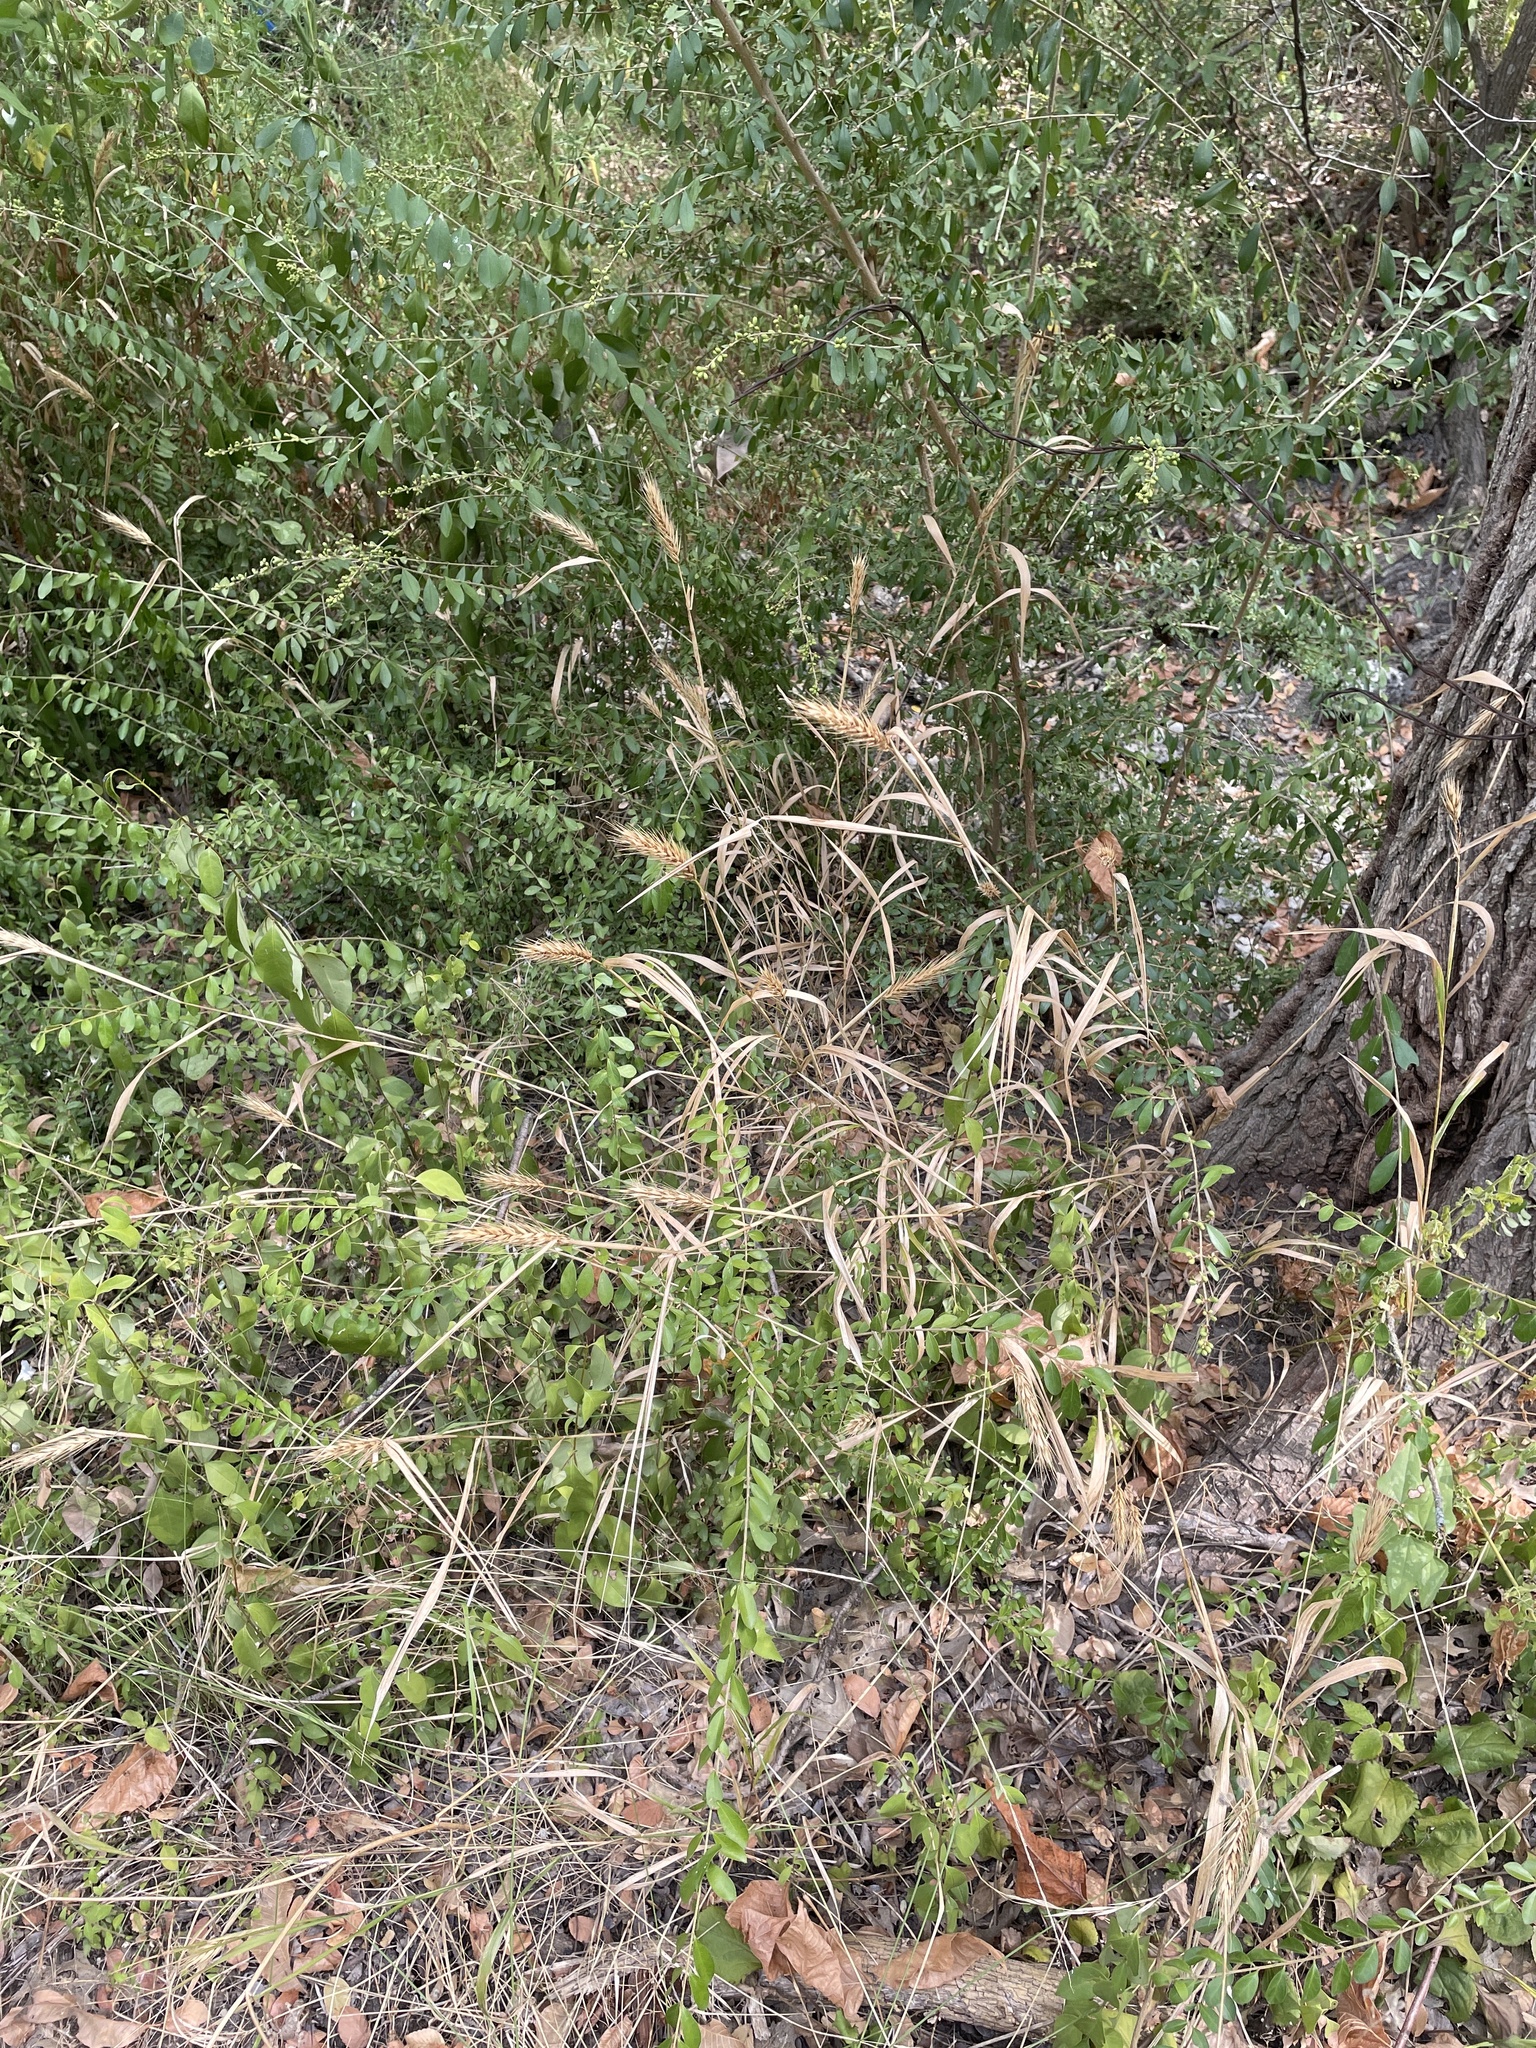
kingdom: Plantae
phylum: Tracheophyta
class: Liliopsida
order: Poales
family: Poaceae
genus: Elymus
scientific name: Elymus virginicus
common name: Common eastern wildrye
